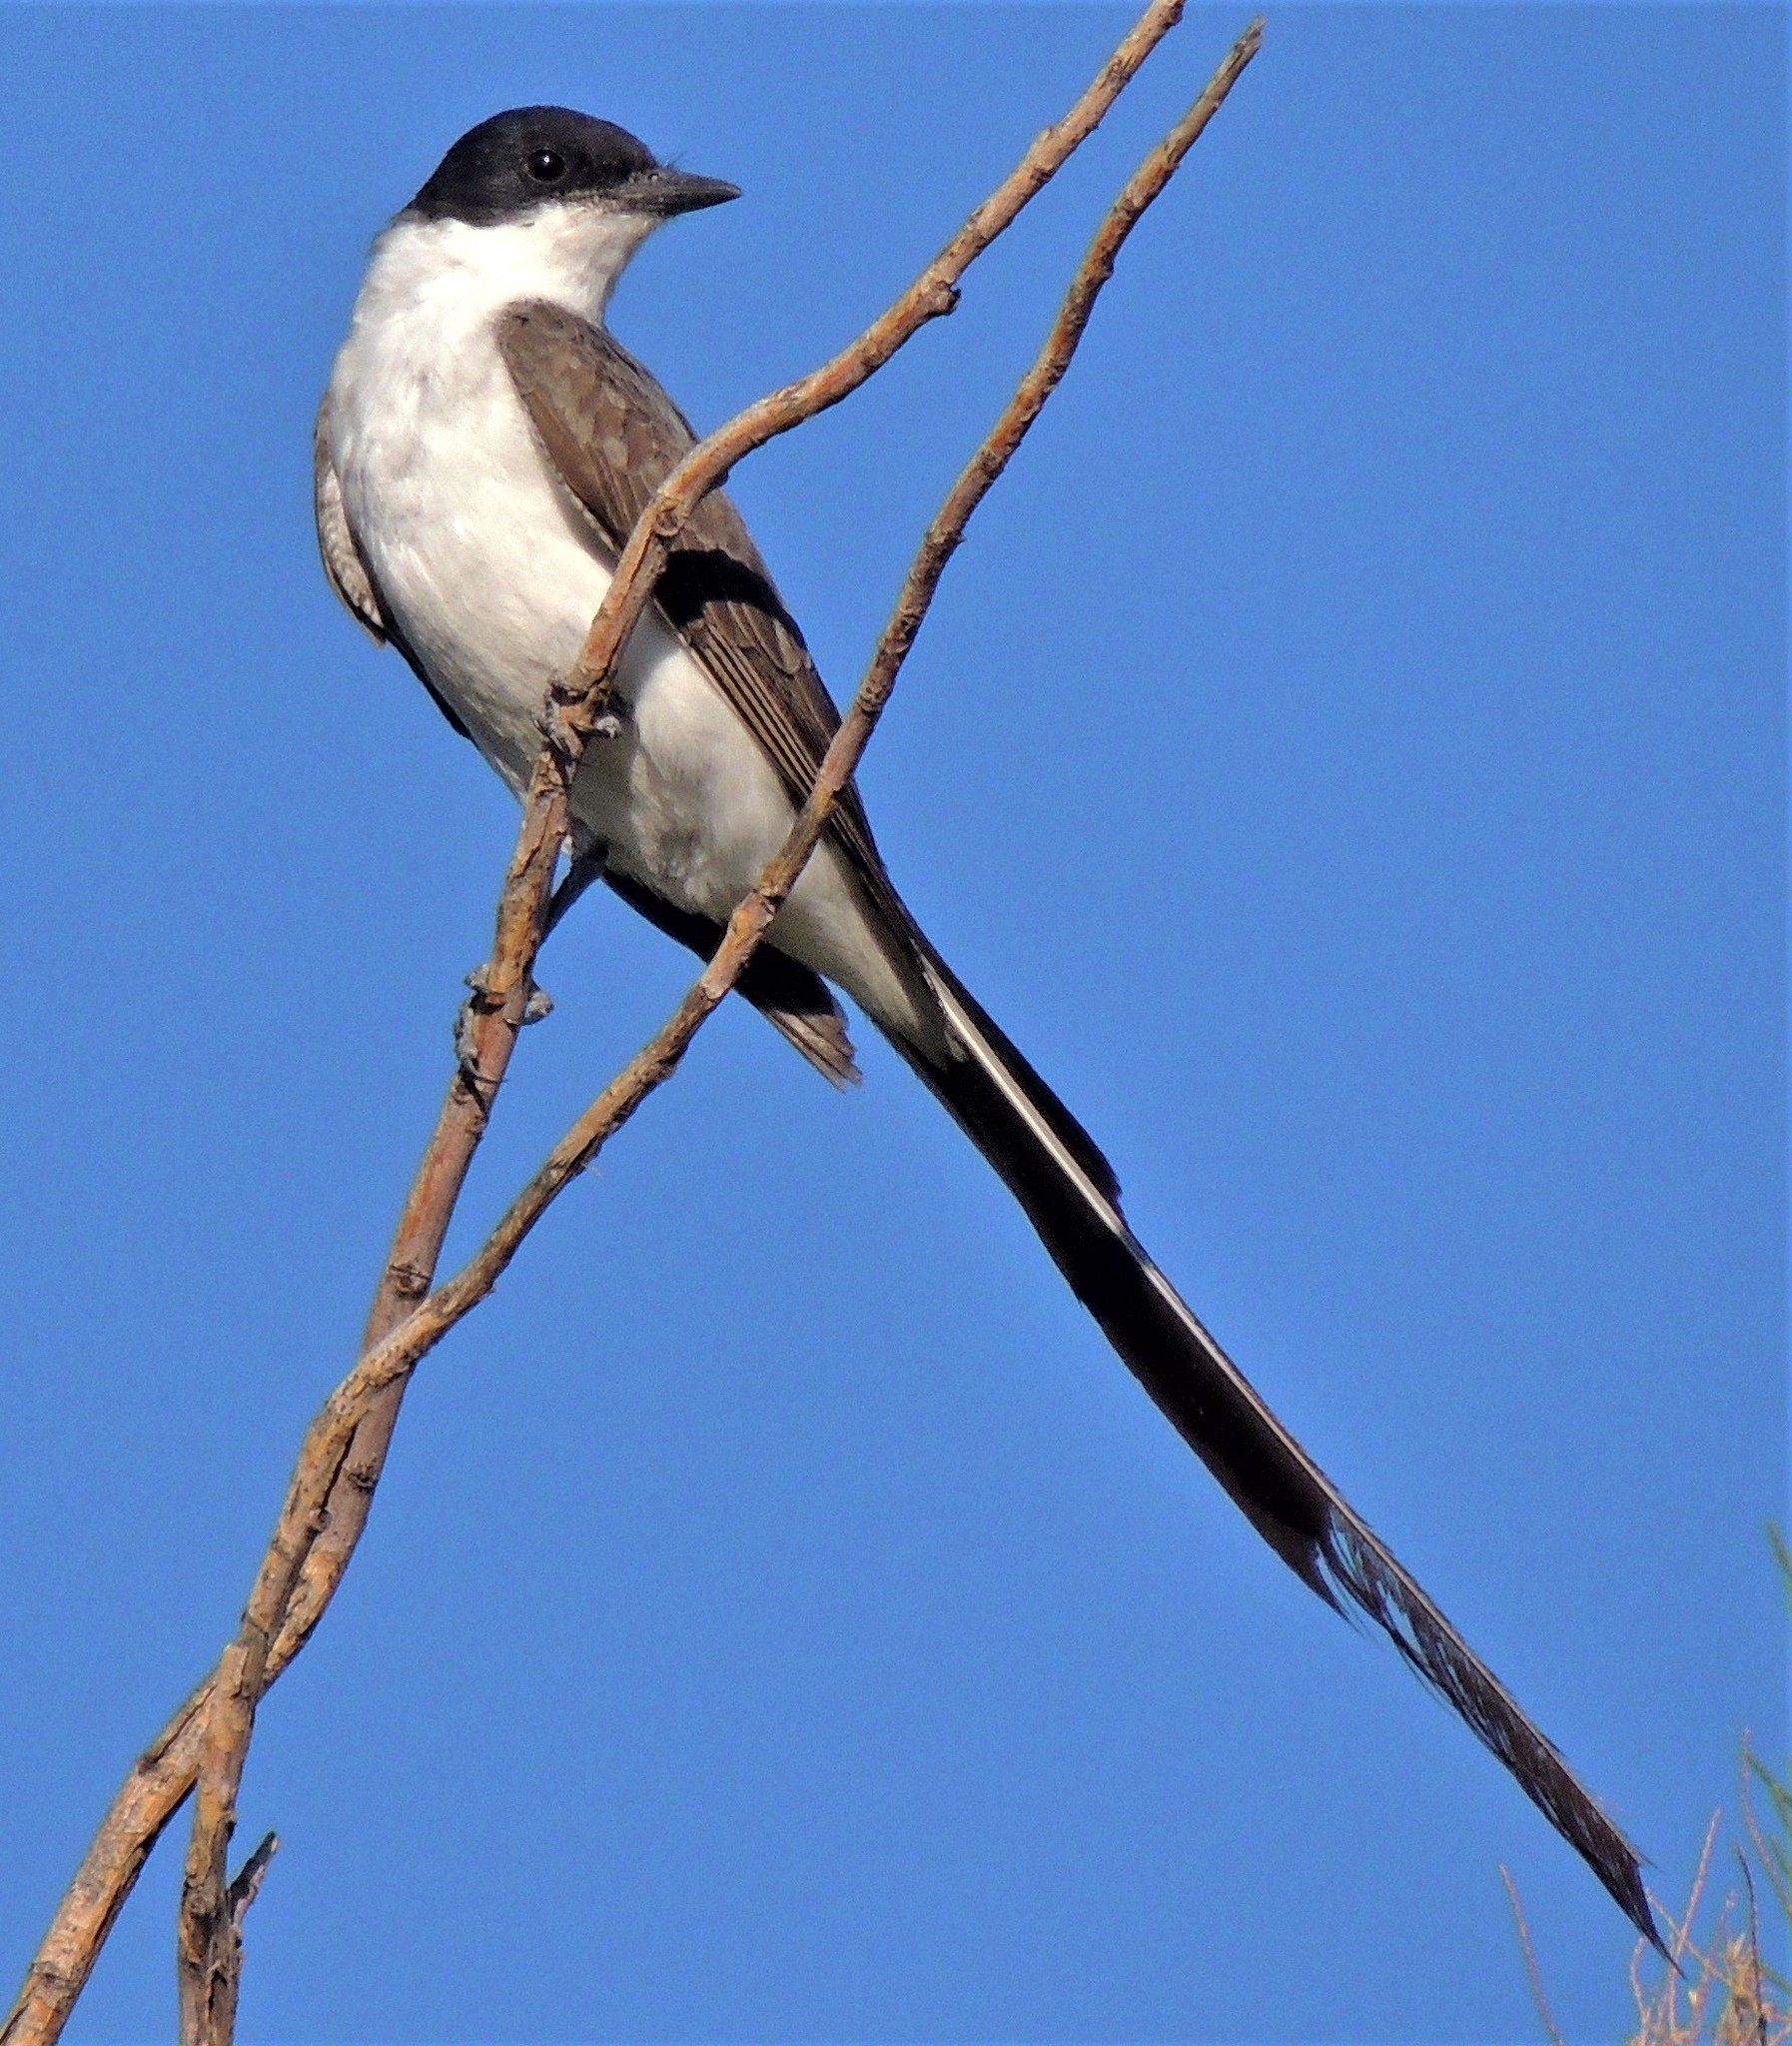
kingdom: Animalia
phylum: Chordata
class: Aves
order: Passeriformes
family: Tyrannidae
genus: Tyrannus
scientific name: Tyrannus savana
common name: Fork-tailed flycatcher
